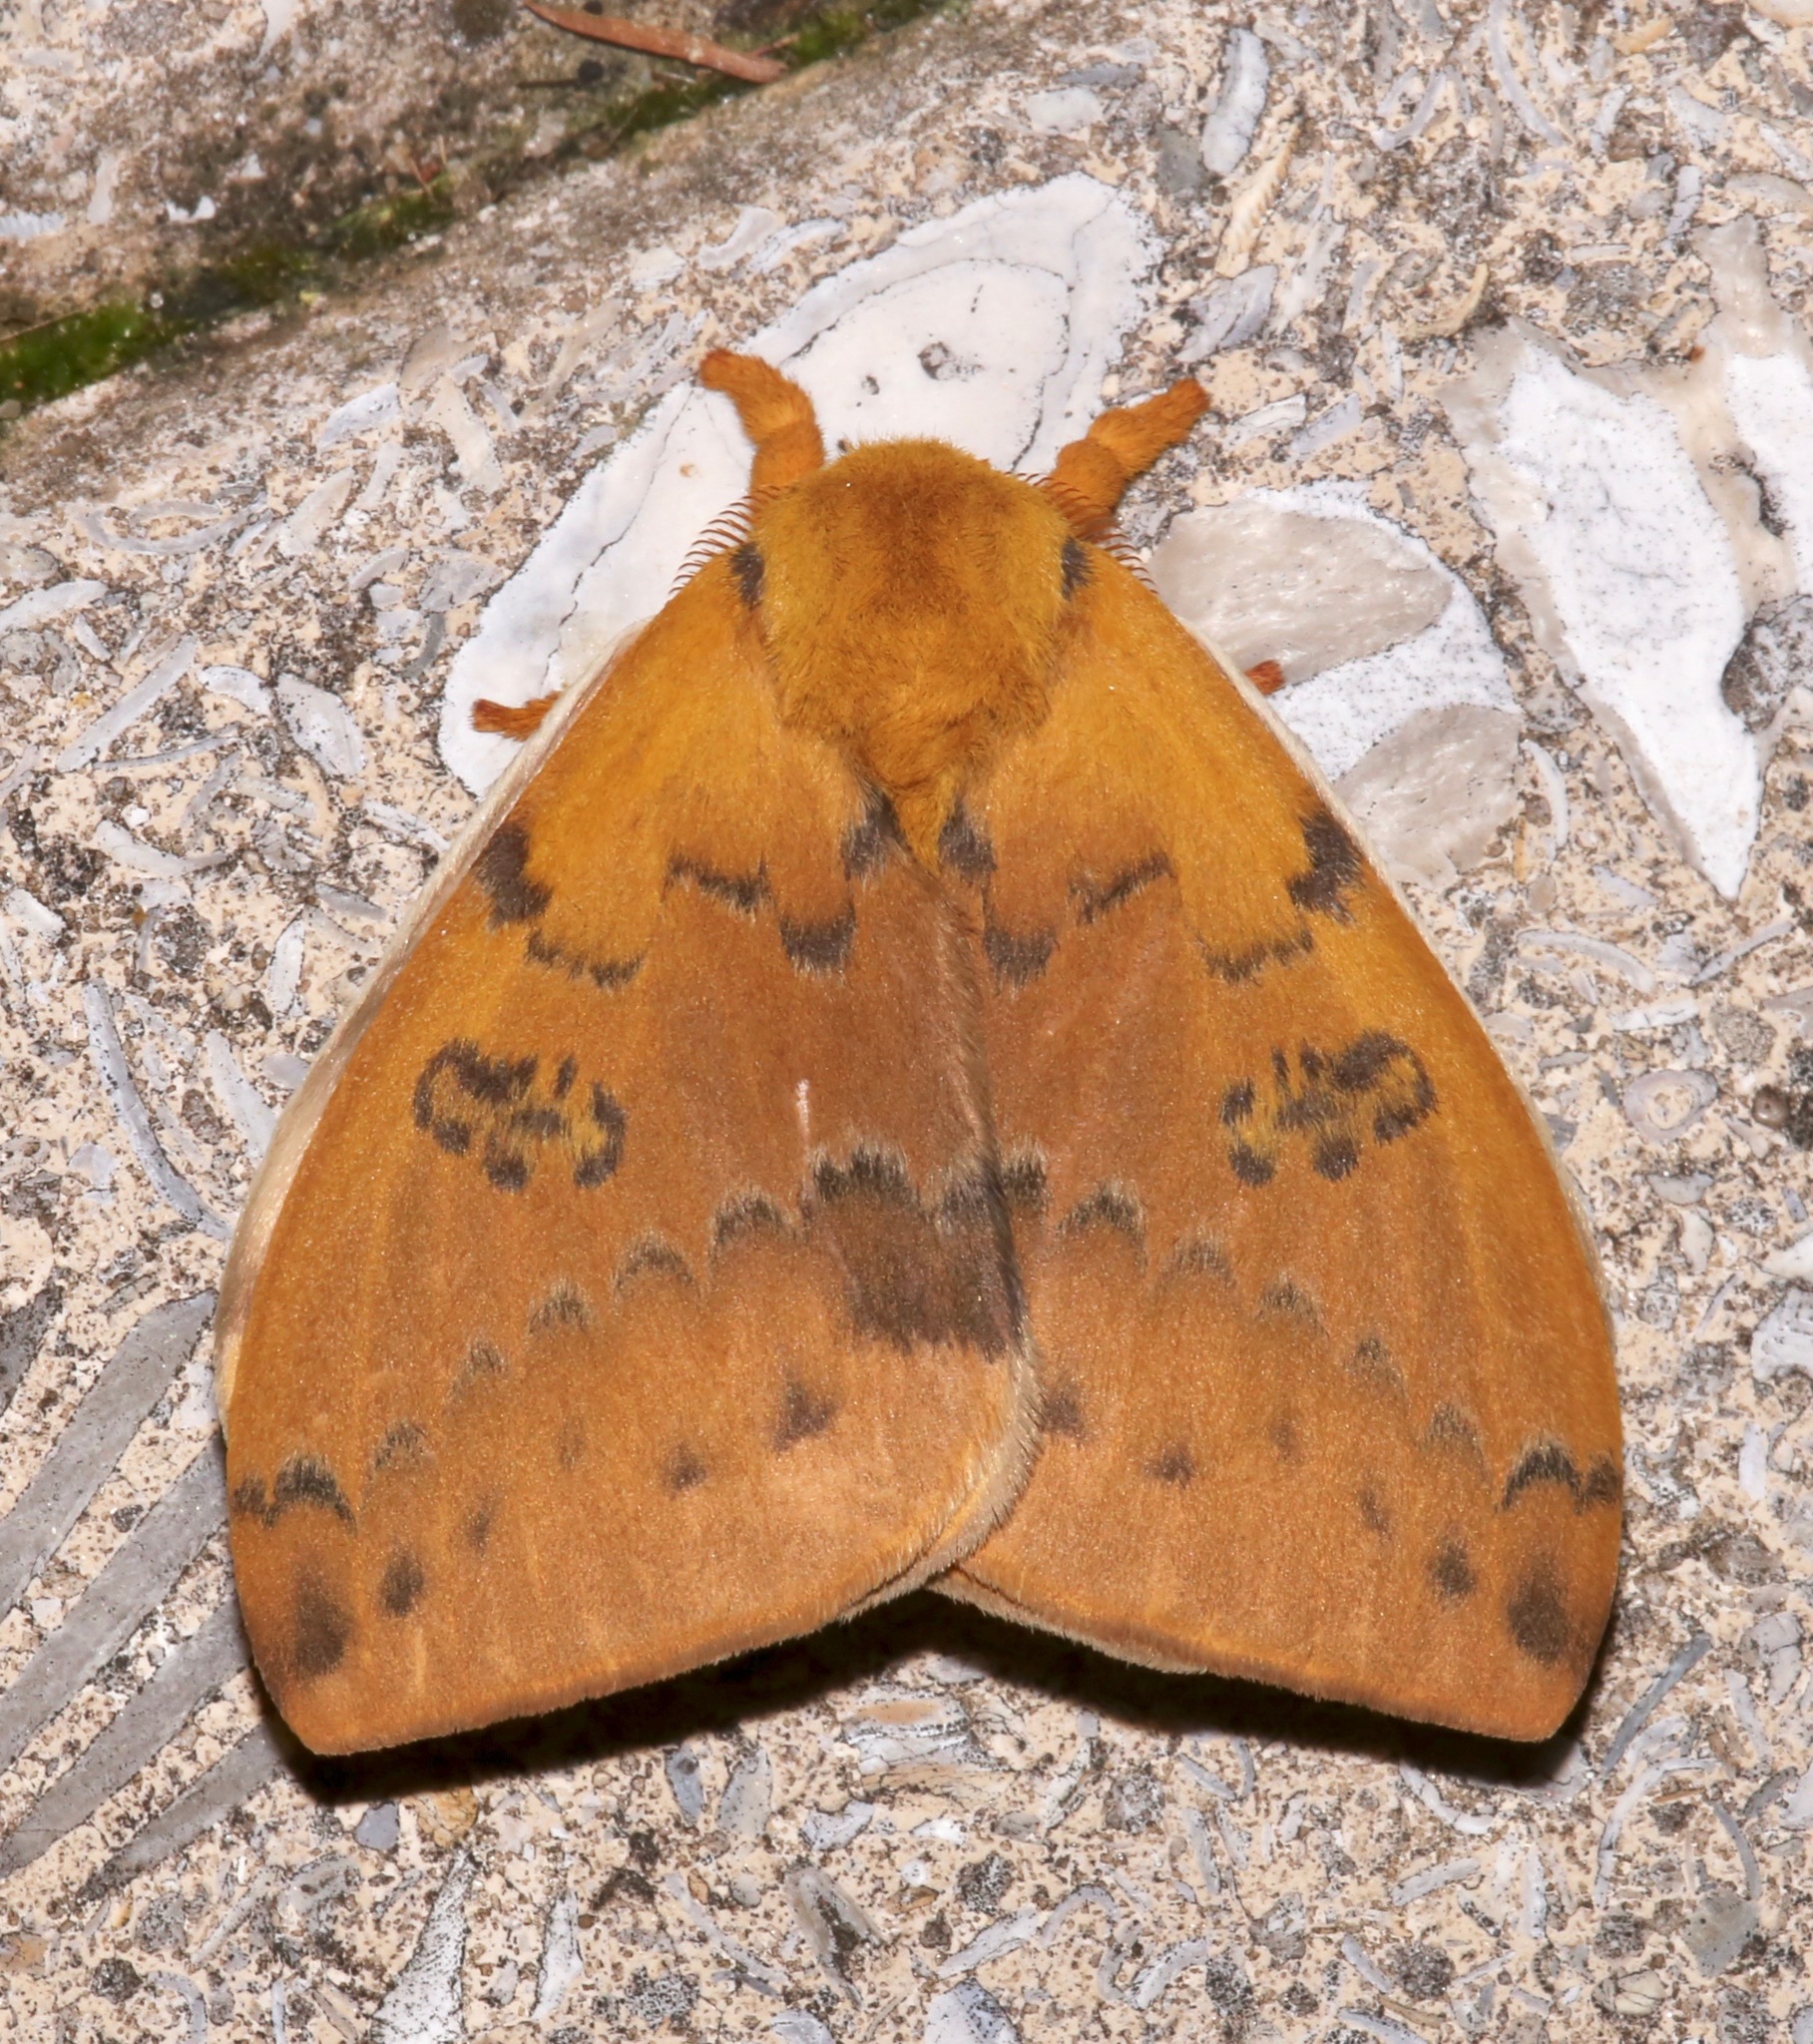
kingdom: Animalia
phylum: Arthropoda
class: Insecta
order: Lepidoptera
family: Saturniidae
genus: Automeris
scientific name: Automeris io
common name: Io moth
